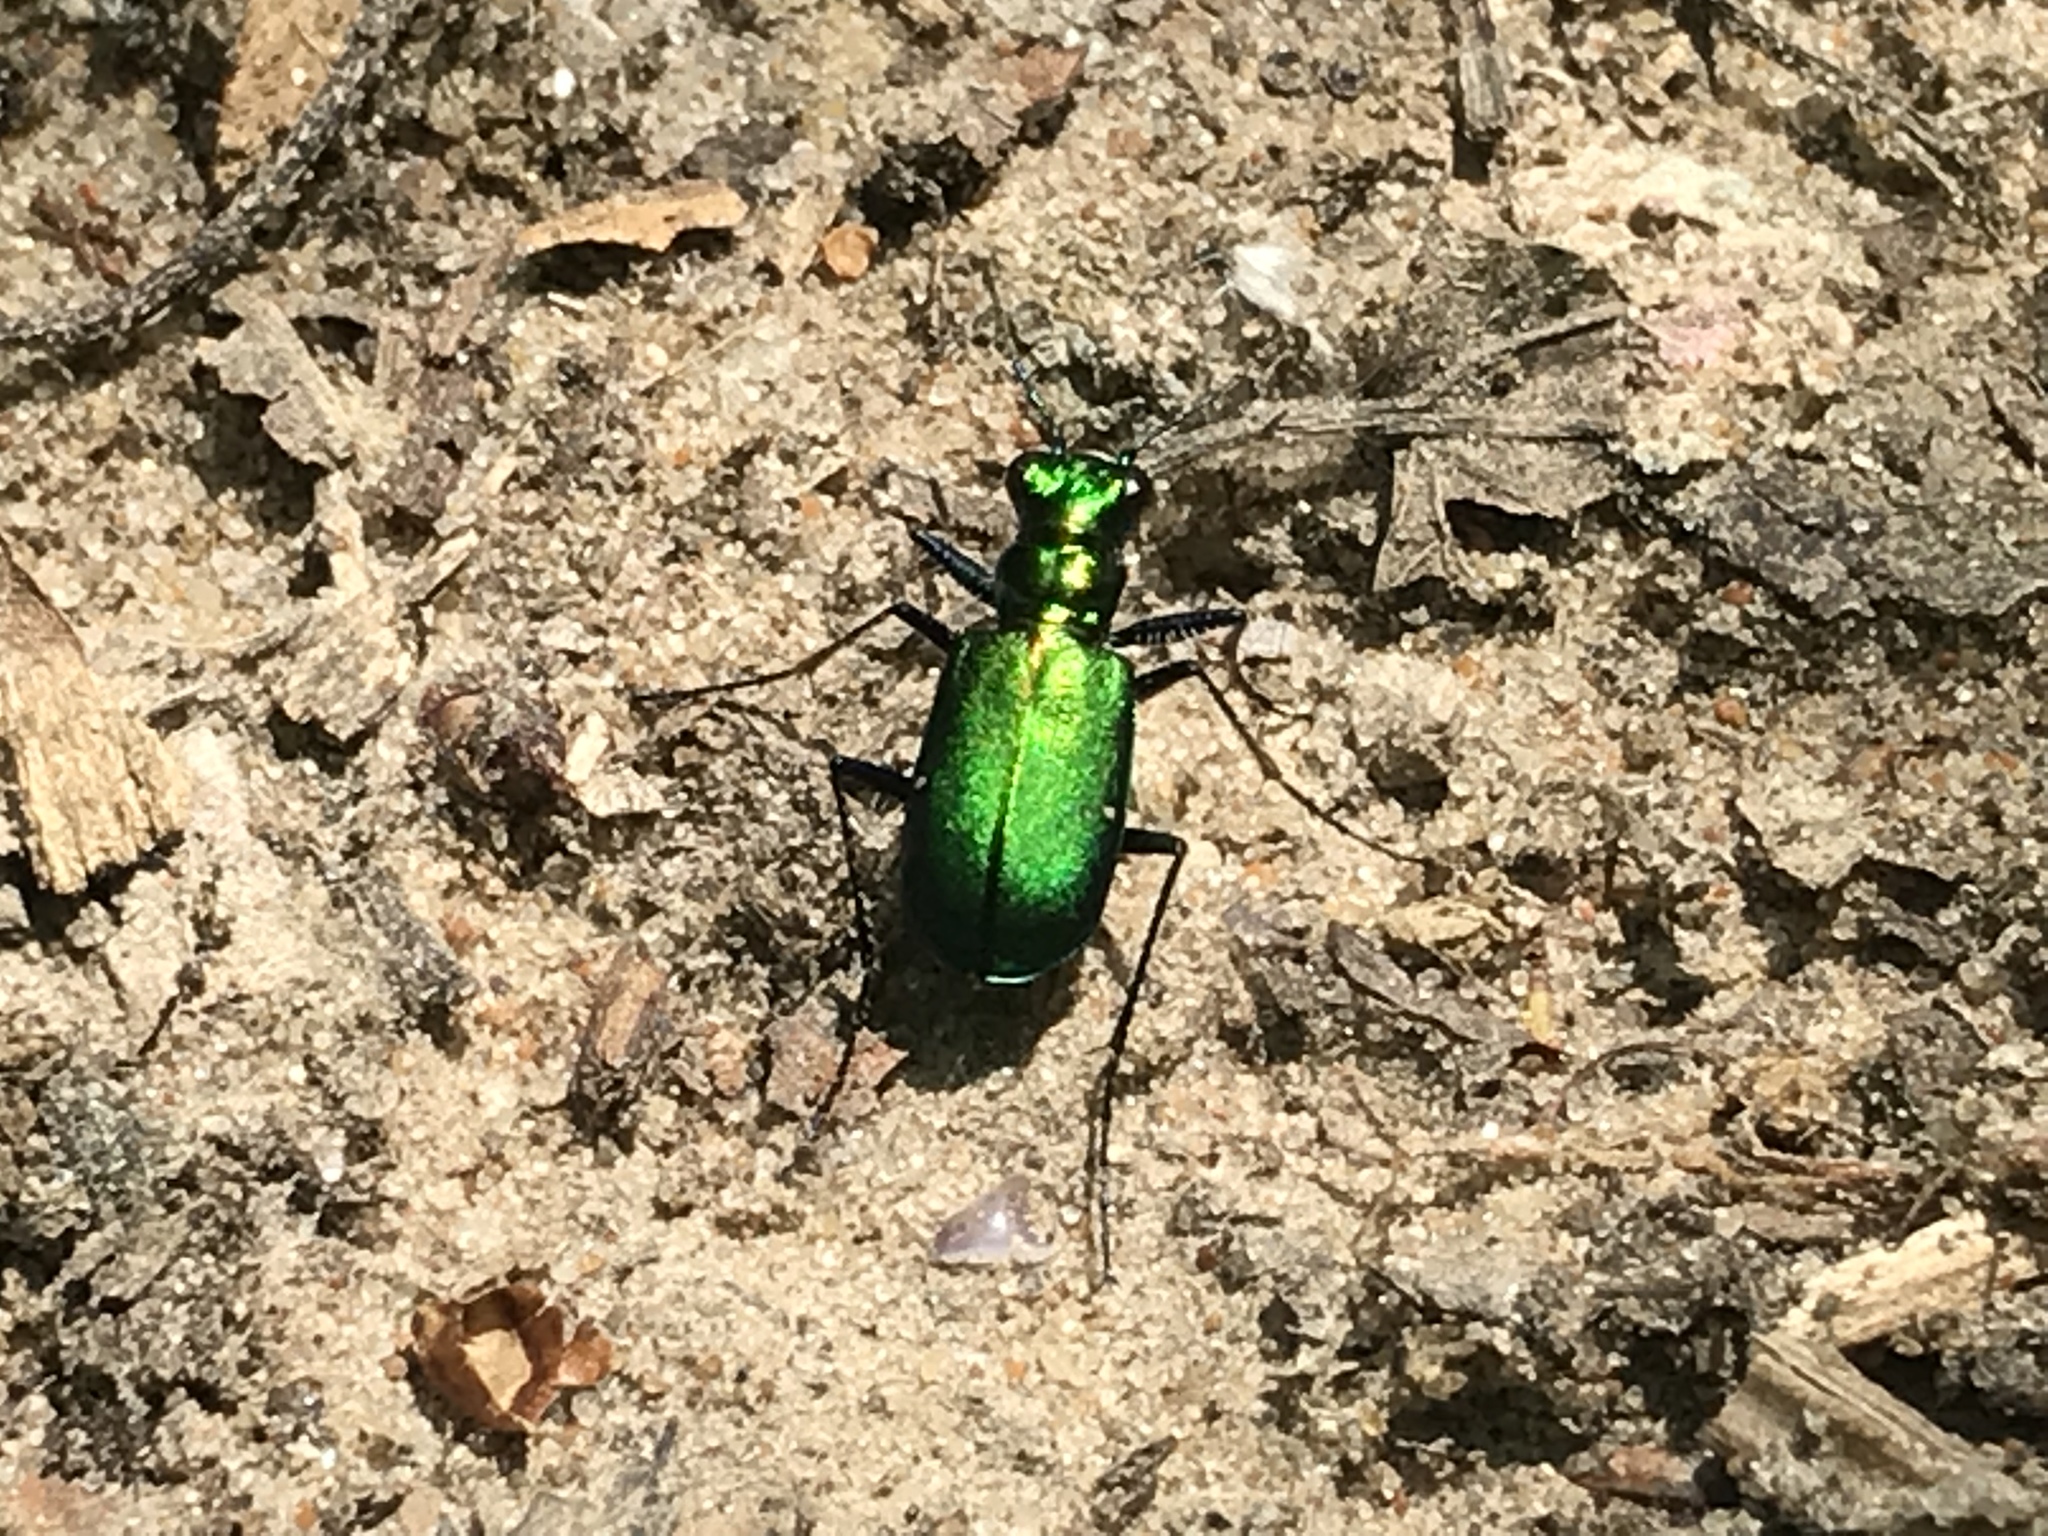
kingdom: Animalia
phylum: Arthropoda
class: Insecta
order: Coleoptera
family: Carabidae
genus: Cicindela
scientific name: Cicindela sexguttata
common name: Six-spotted tiger beetle
